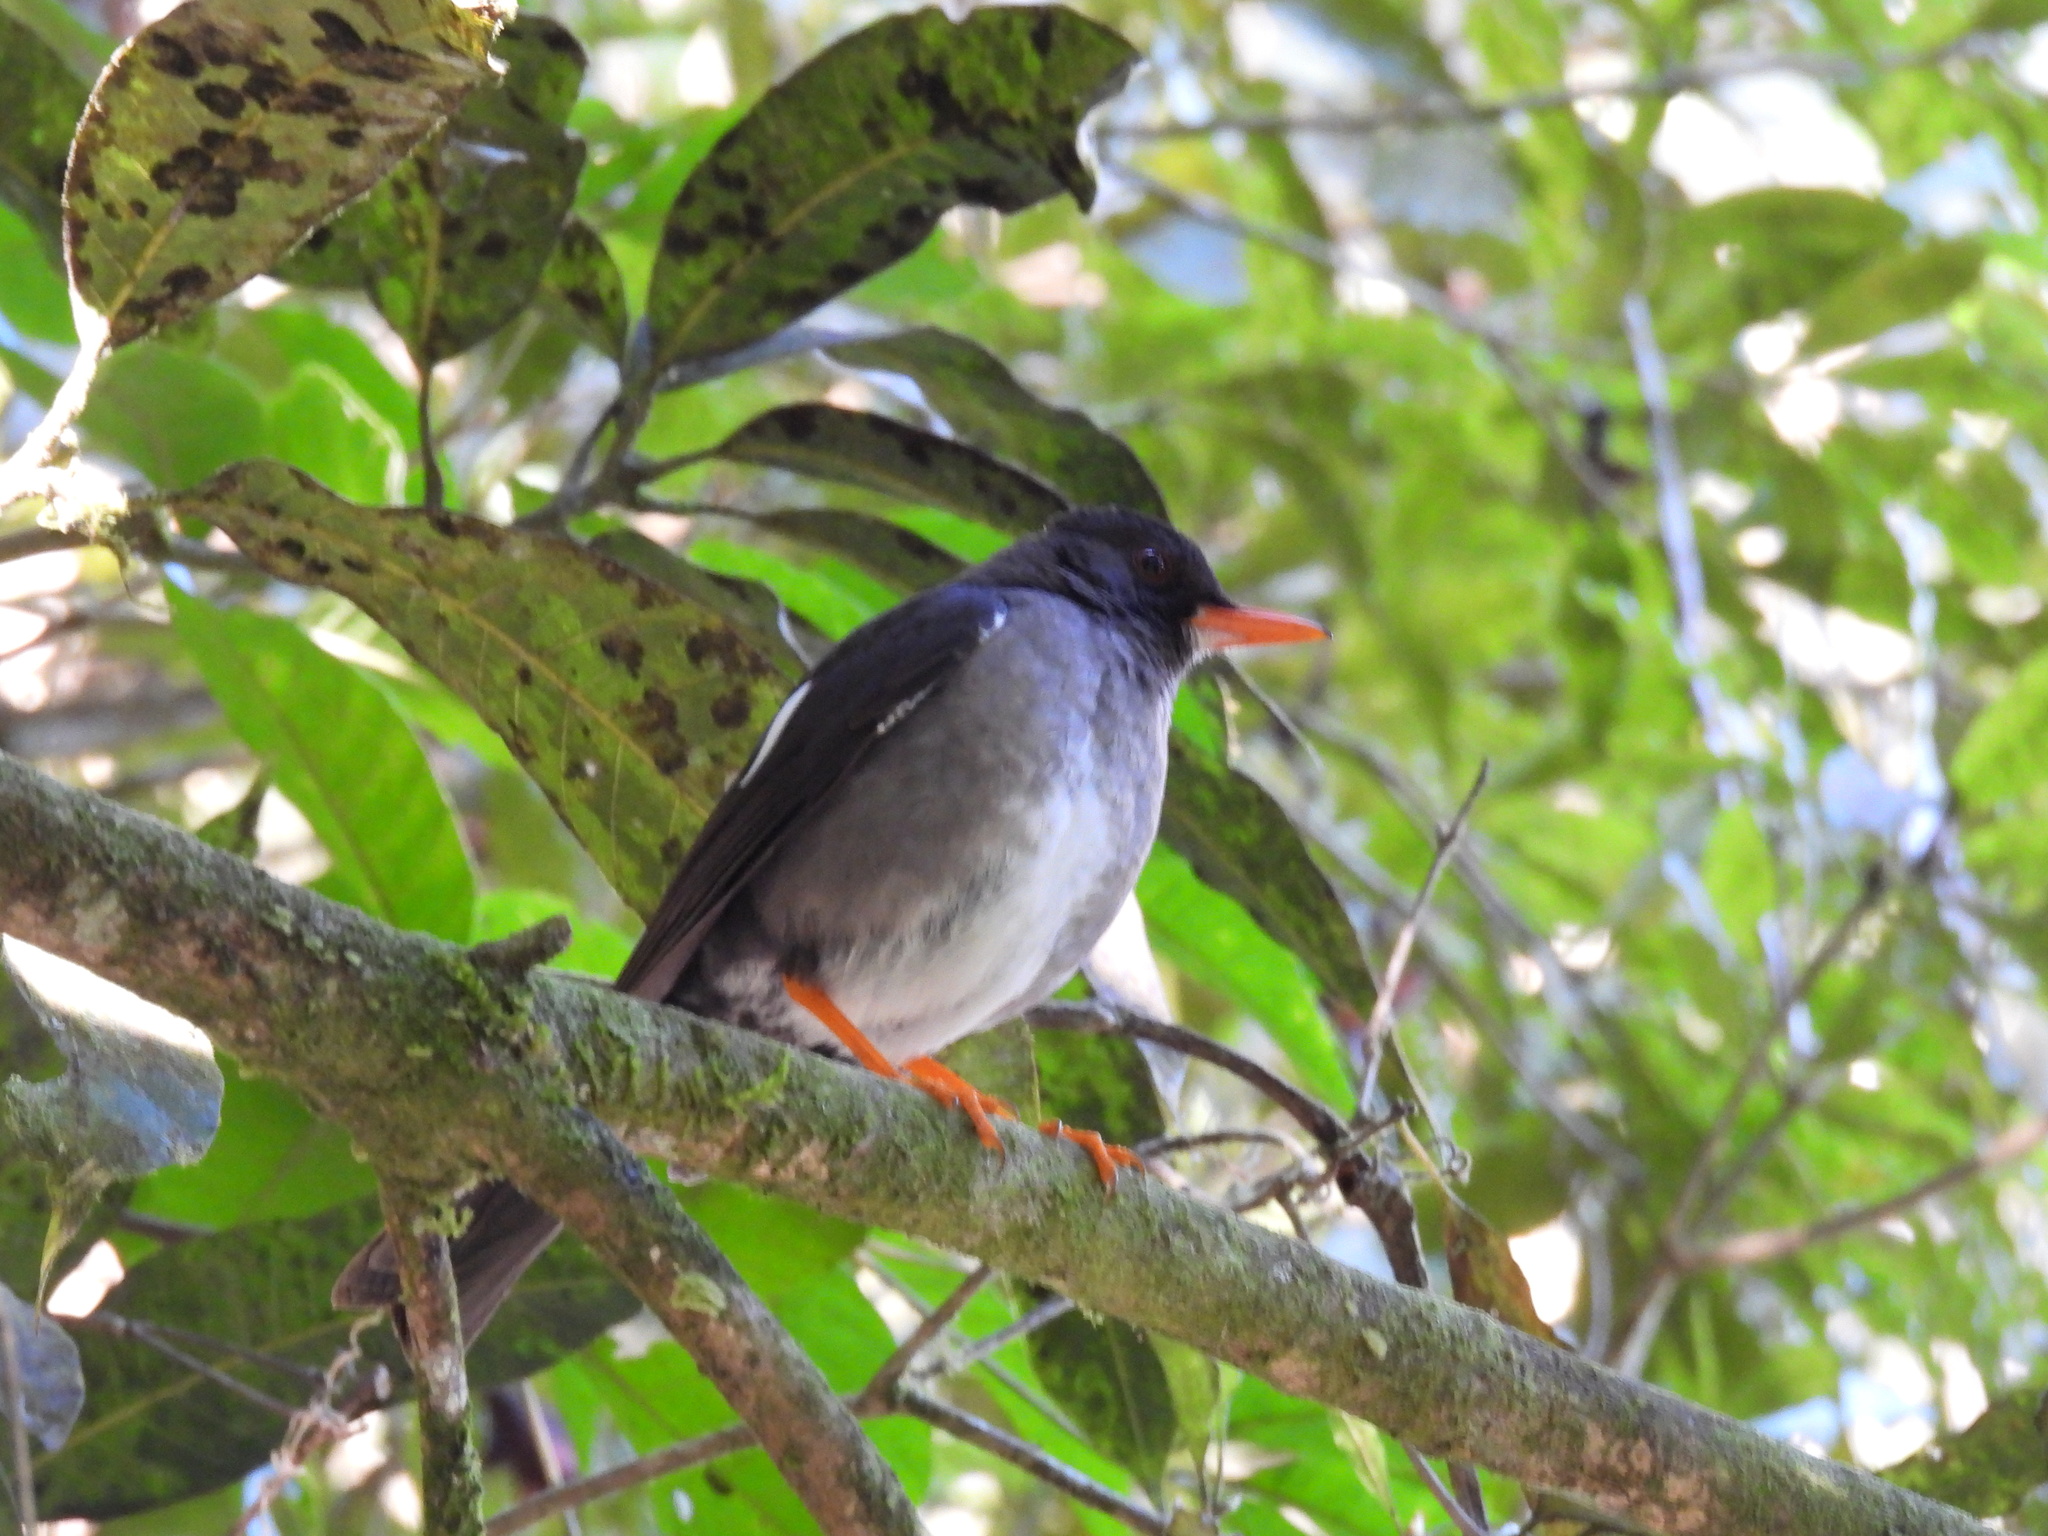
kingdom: Animalia
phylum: Chordata
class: Aves
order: Passeriformes
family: Turdidae
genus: Turdus
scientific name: Turdus aurantius
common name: White-chinned thrush
